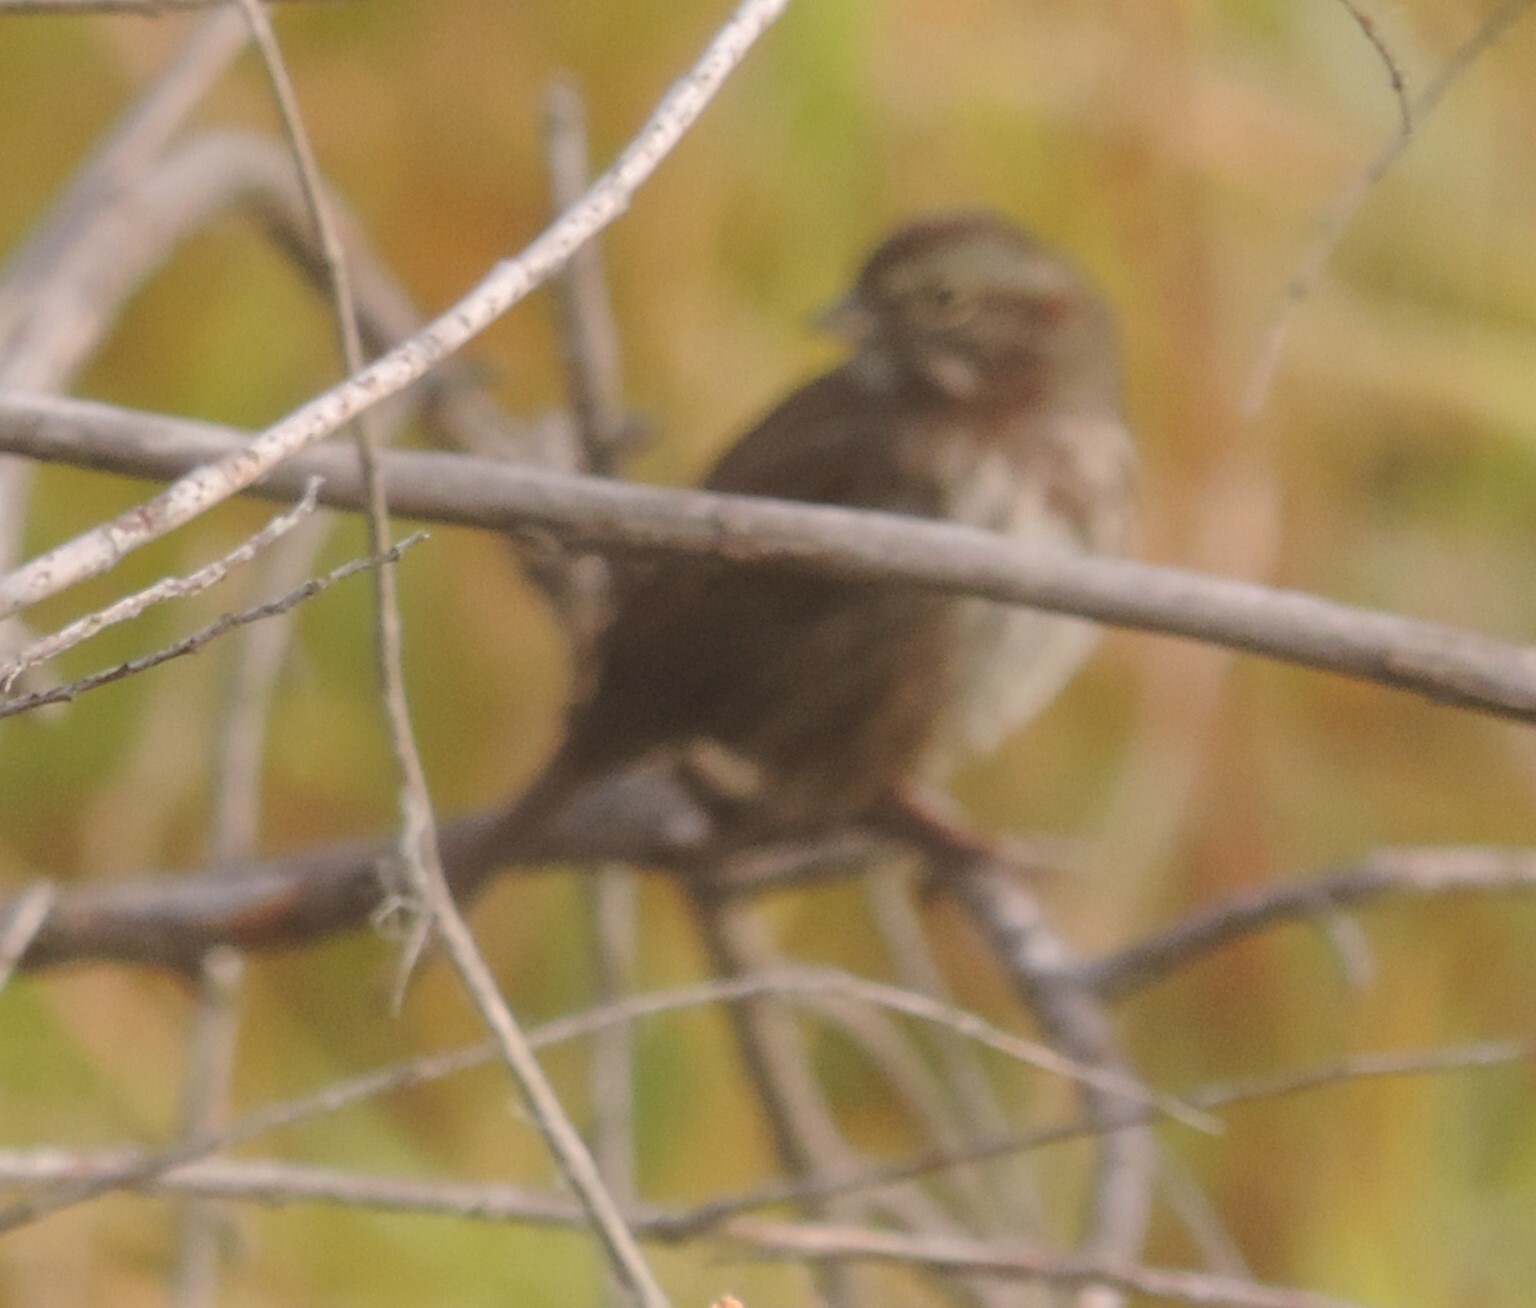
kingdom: Animalia
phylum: Chordata
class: Aves
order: Passeriformes
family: Passerellidae
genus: Melospiza
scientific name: Melospiza melodia
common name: Song sparrow
